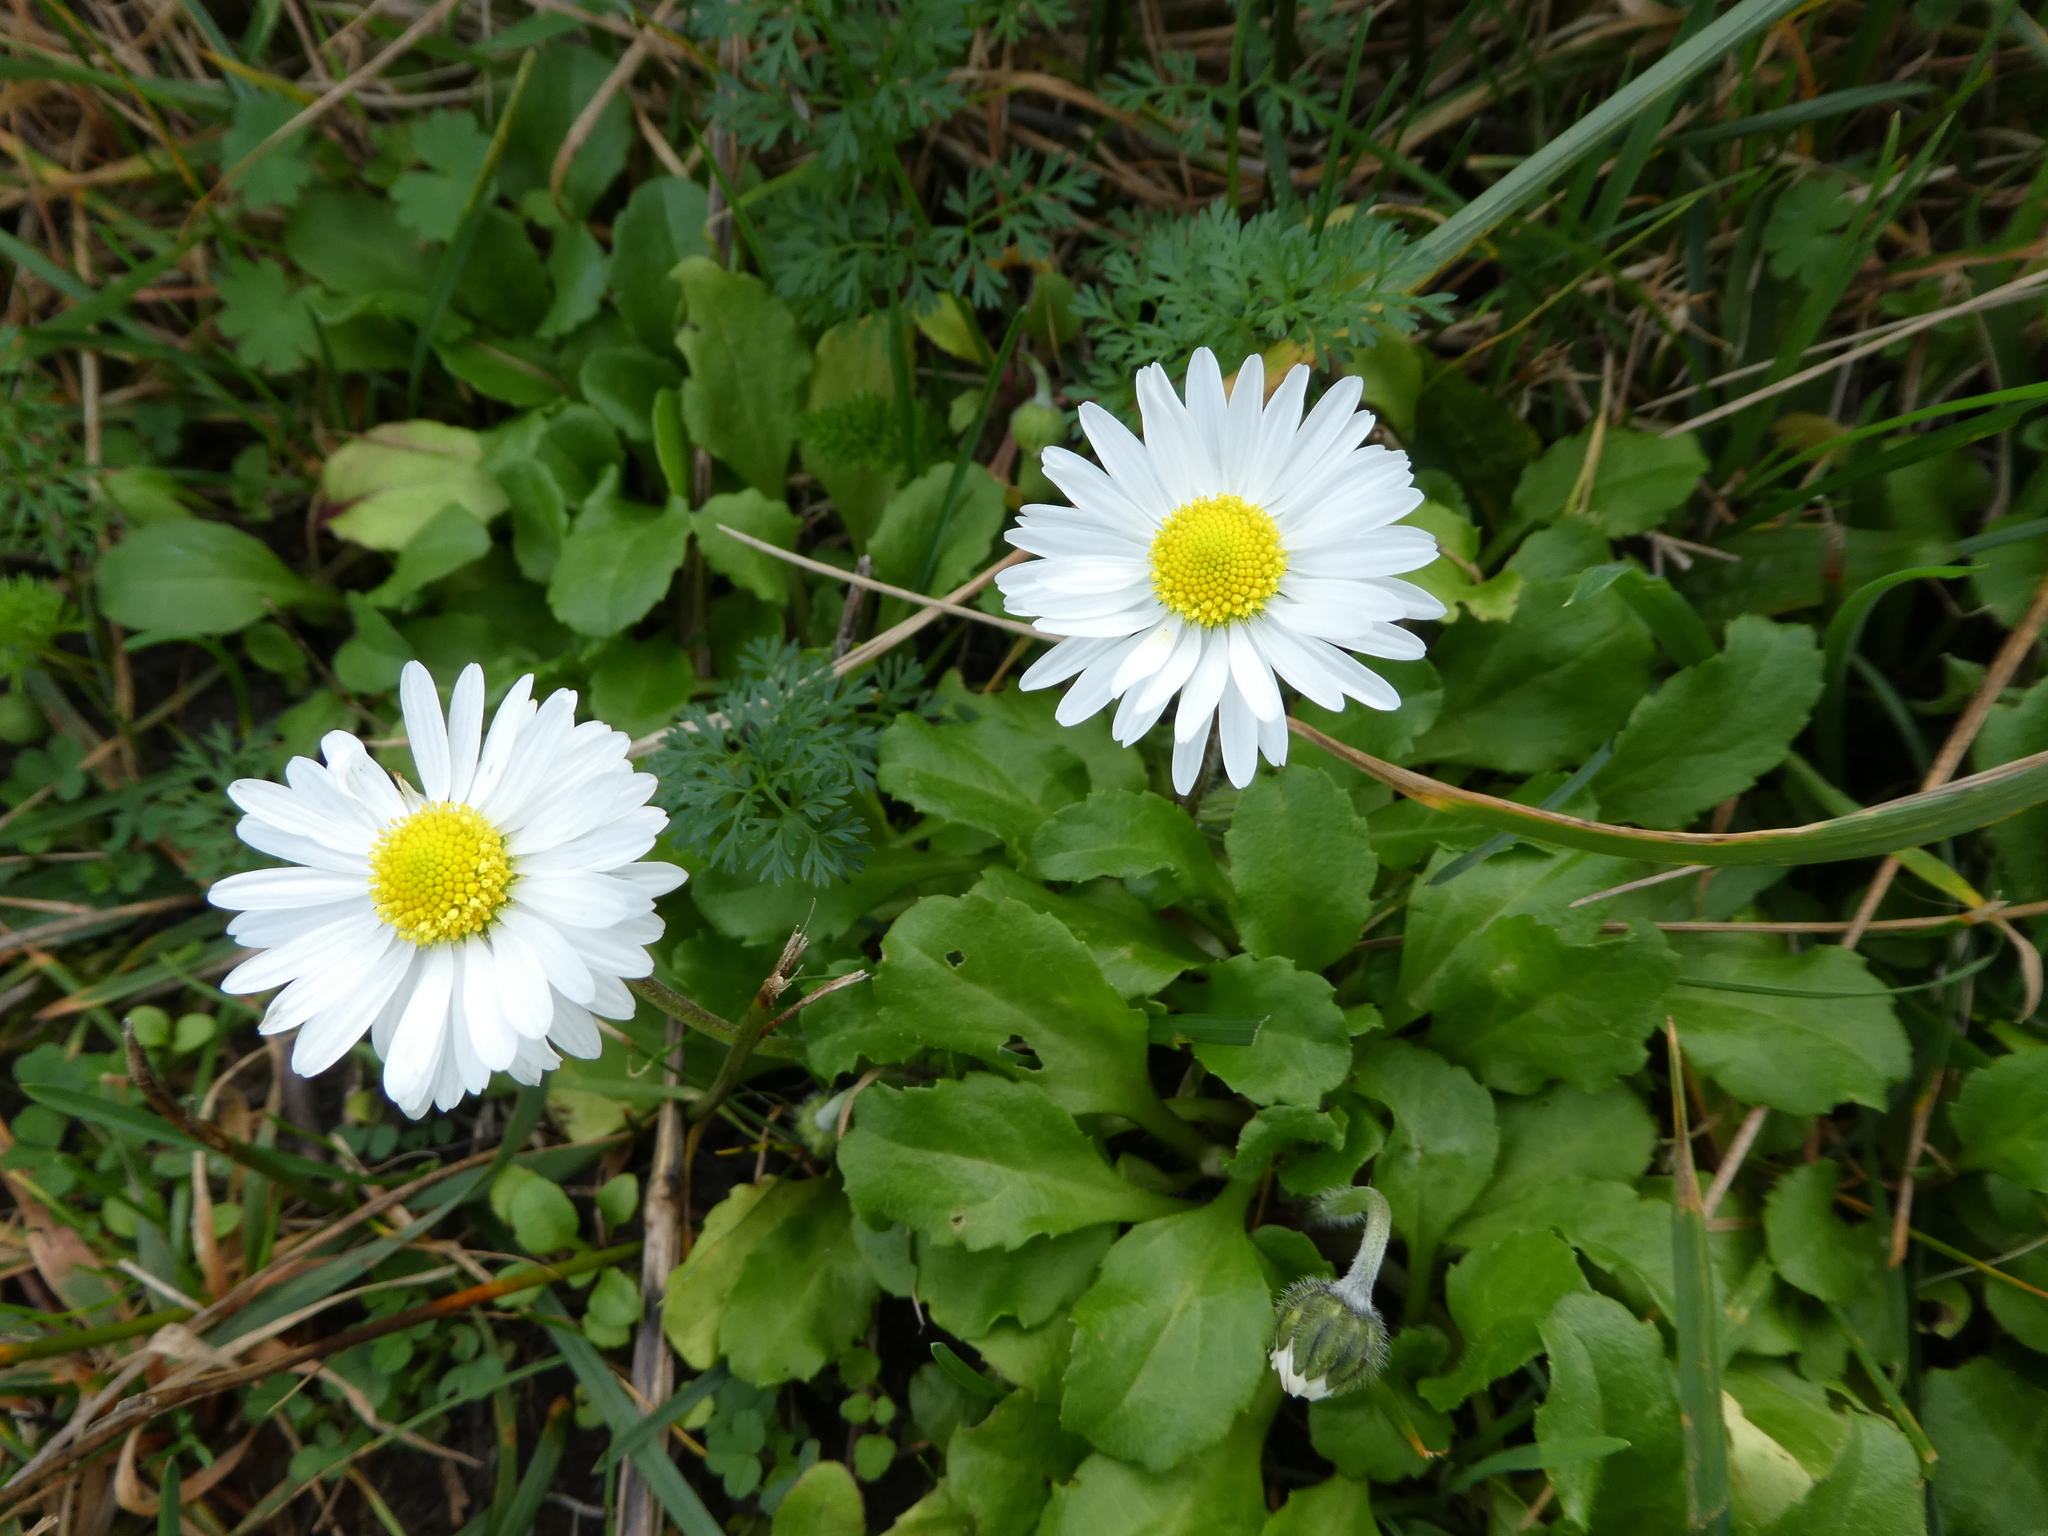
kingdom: Plantae
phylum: Tracheophyta
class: Magnoliopsida
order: Asterales
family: Asteraceae
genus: Bellis
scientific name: Bellis perennis
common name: Lawndaisy
